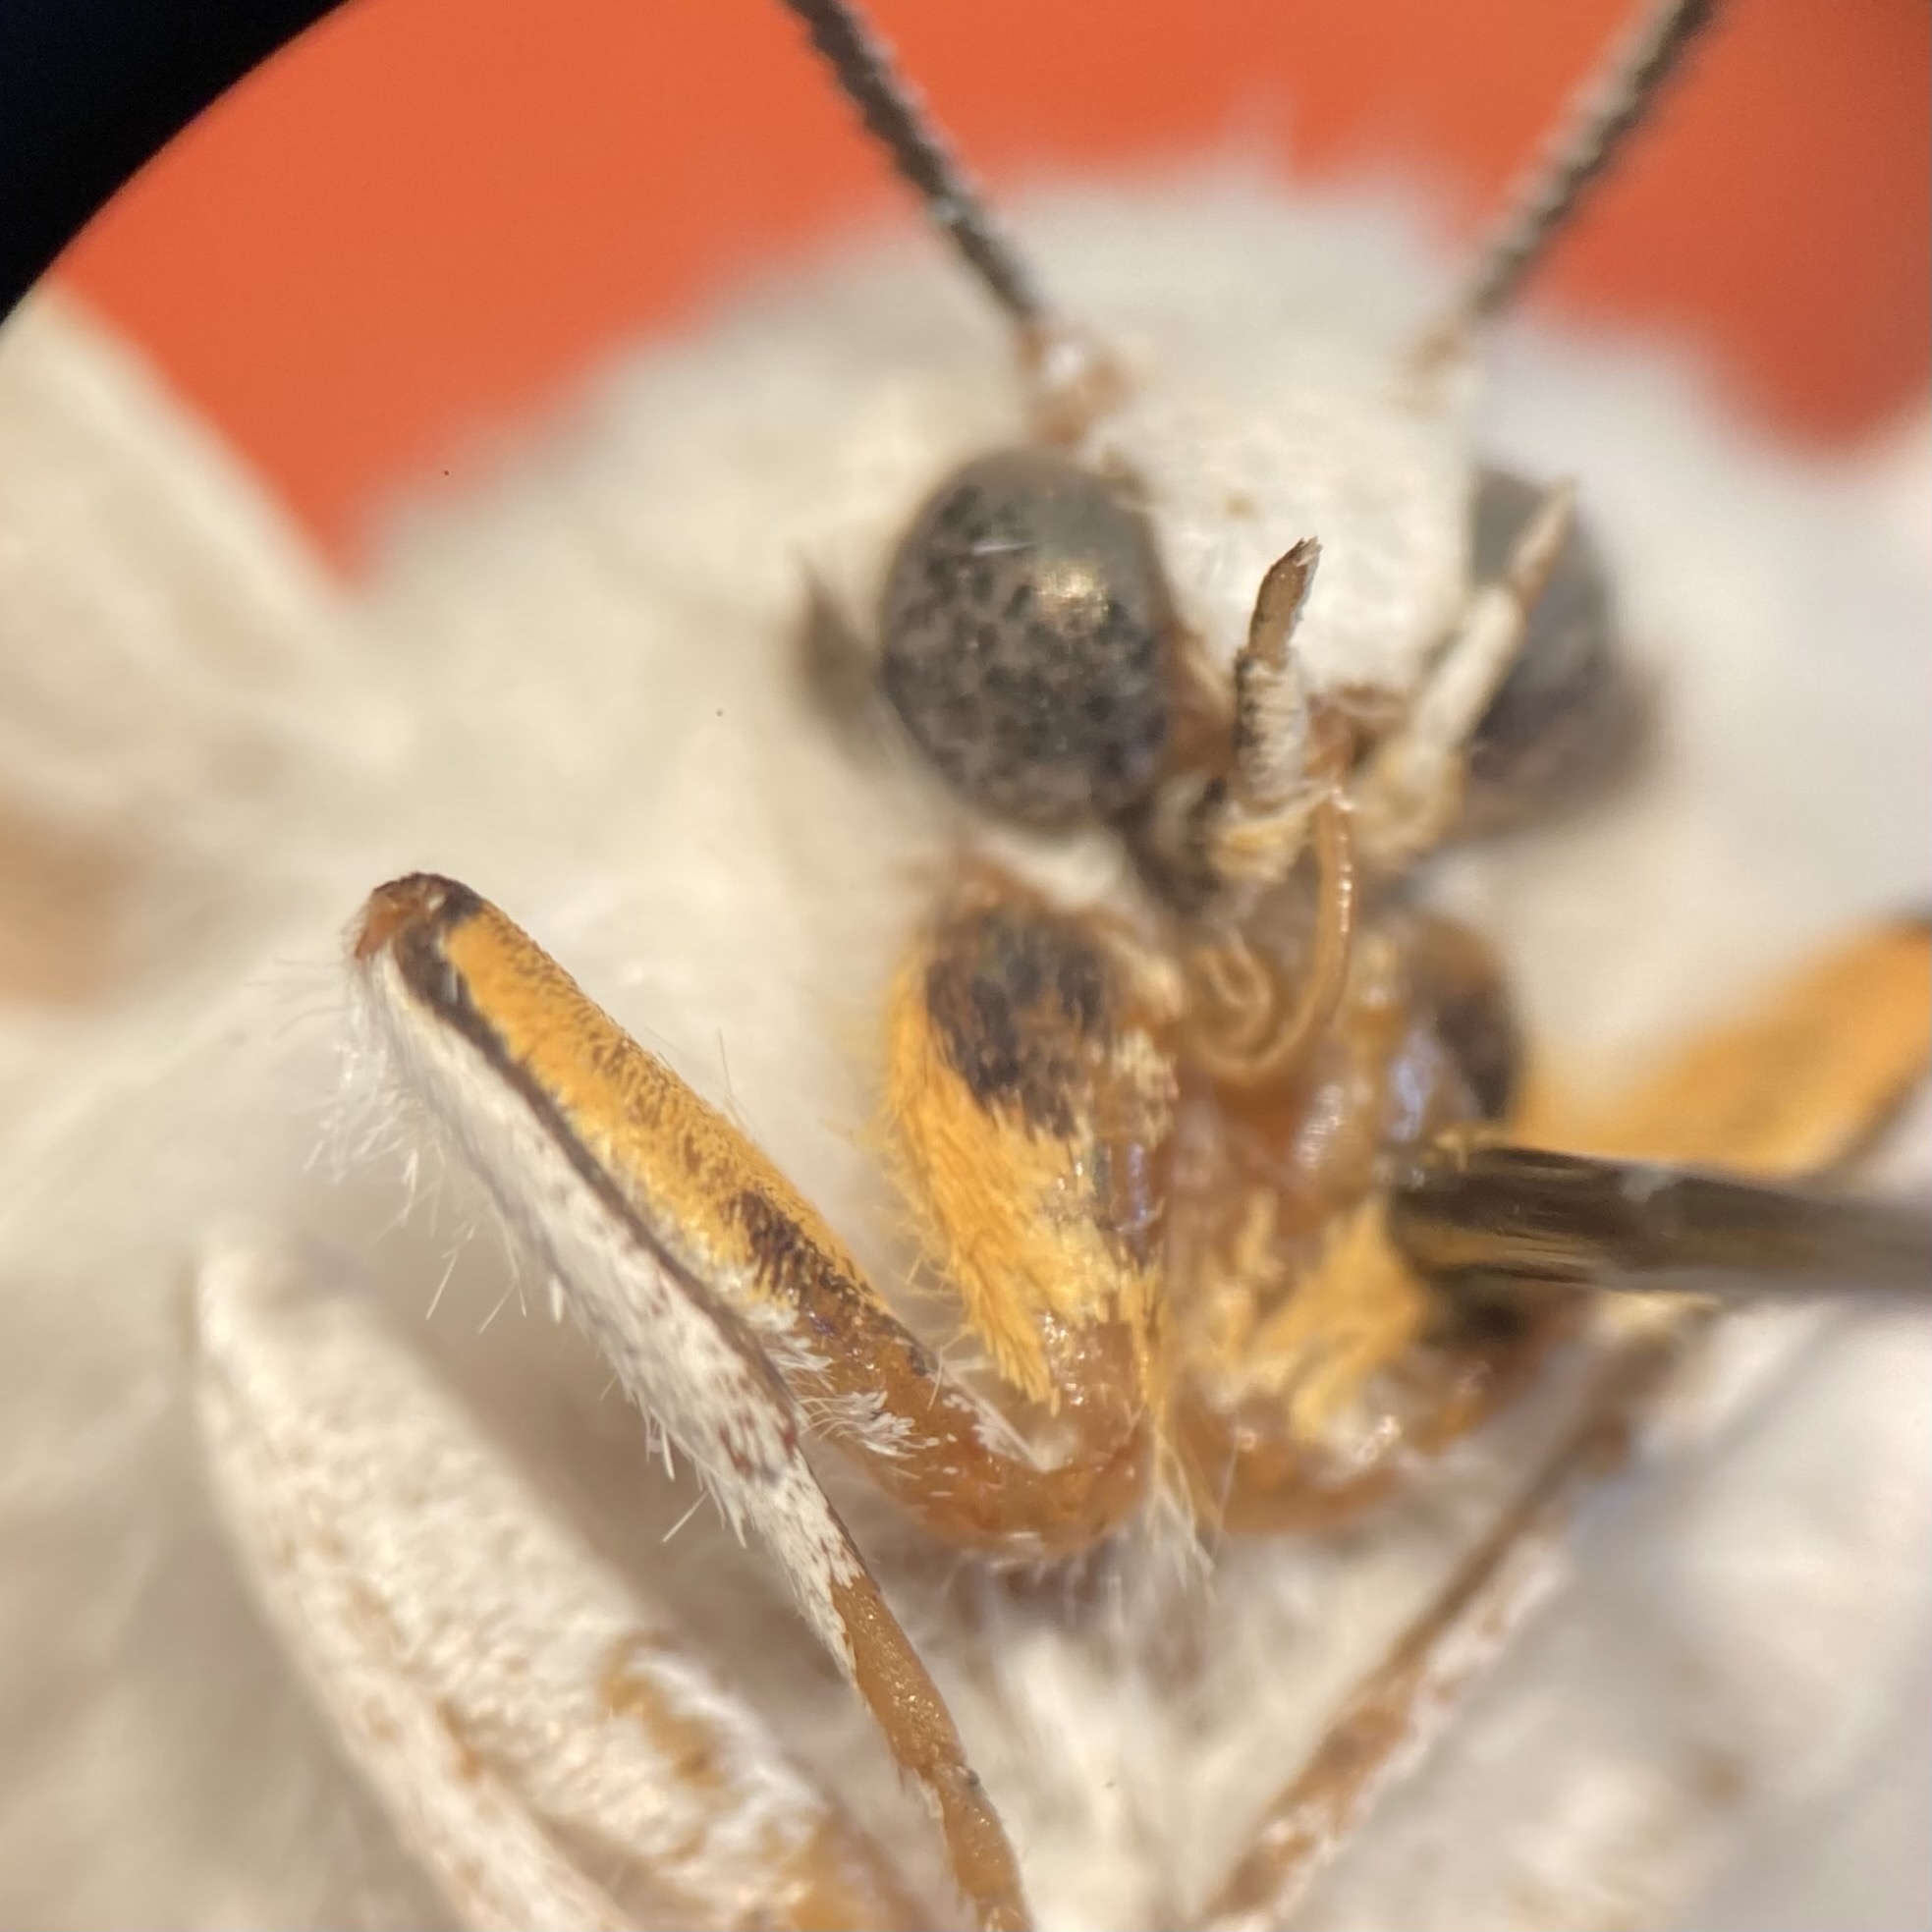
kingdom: Animalia
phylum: Arthropoda
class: Insecta
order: Lepidoptera
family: Erebidae
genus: Spilosoma
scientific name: Spilosoma virginica
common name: Virginia tiger moth
